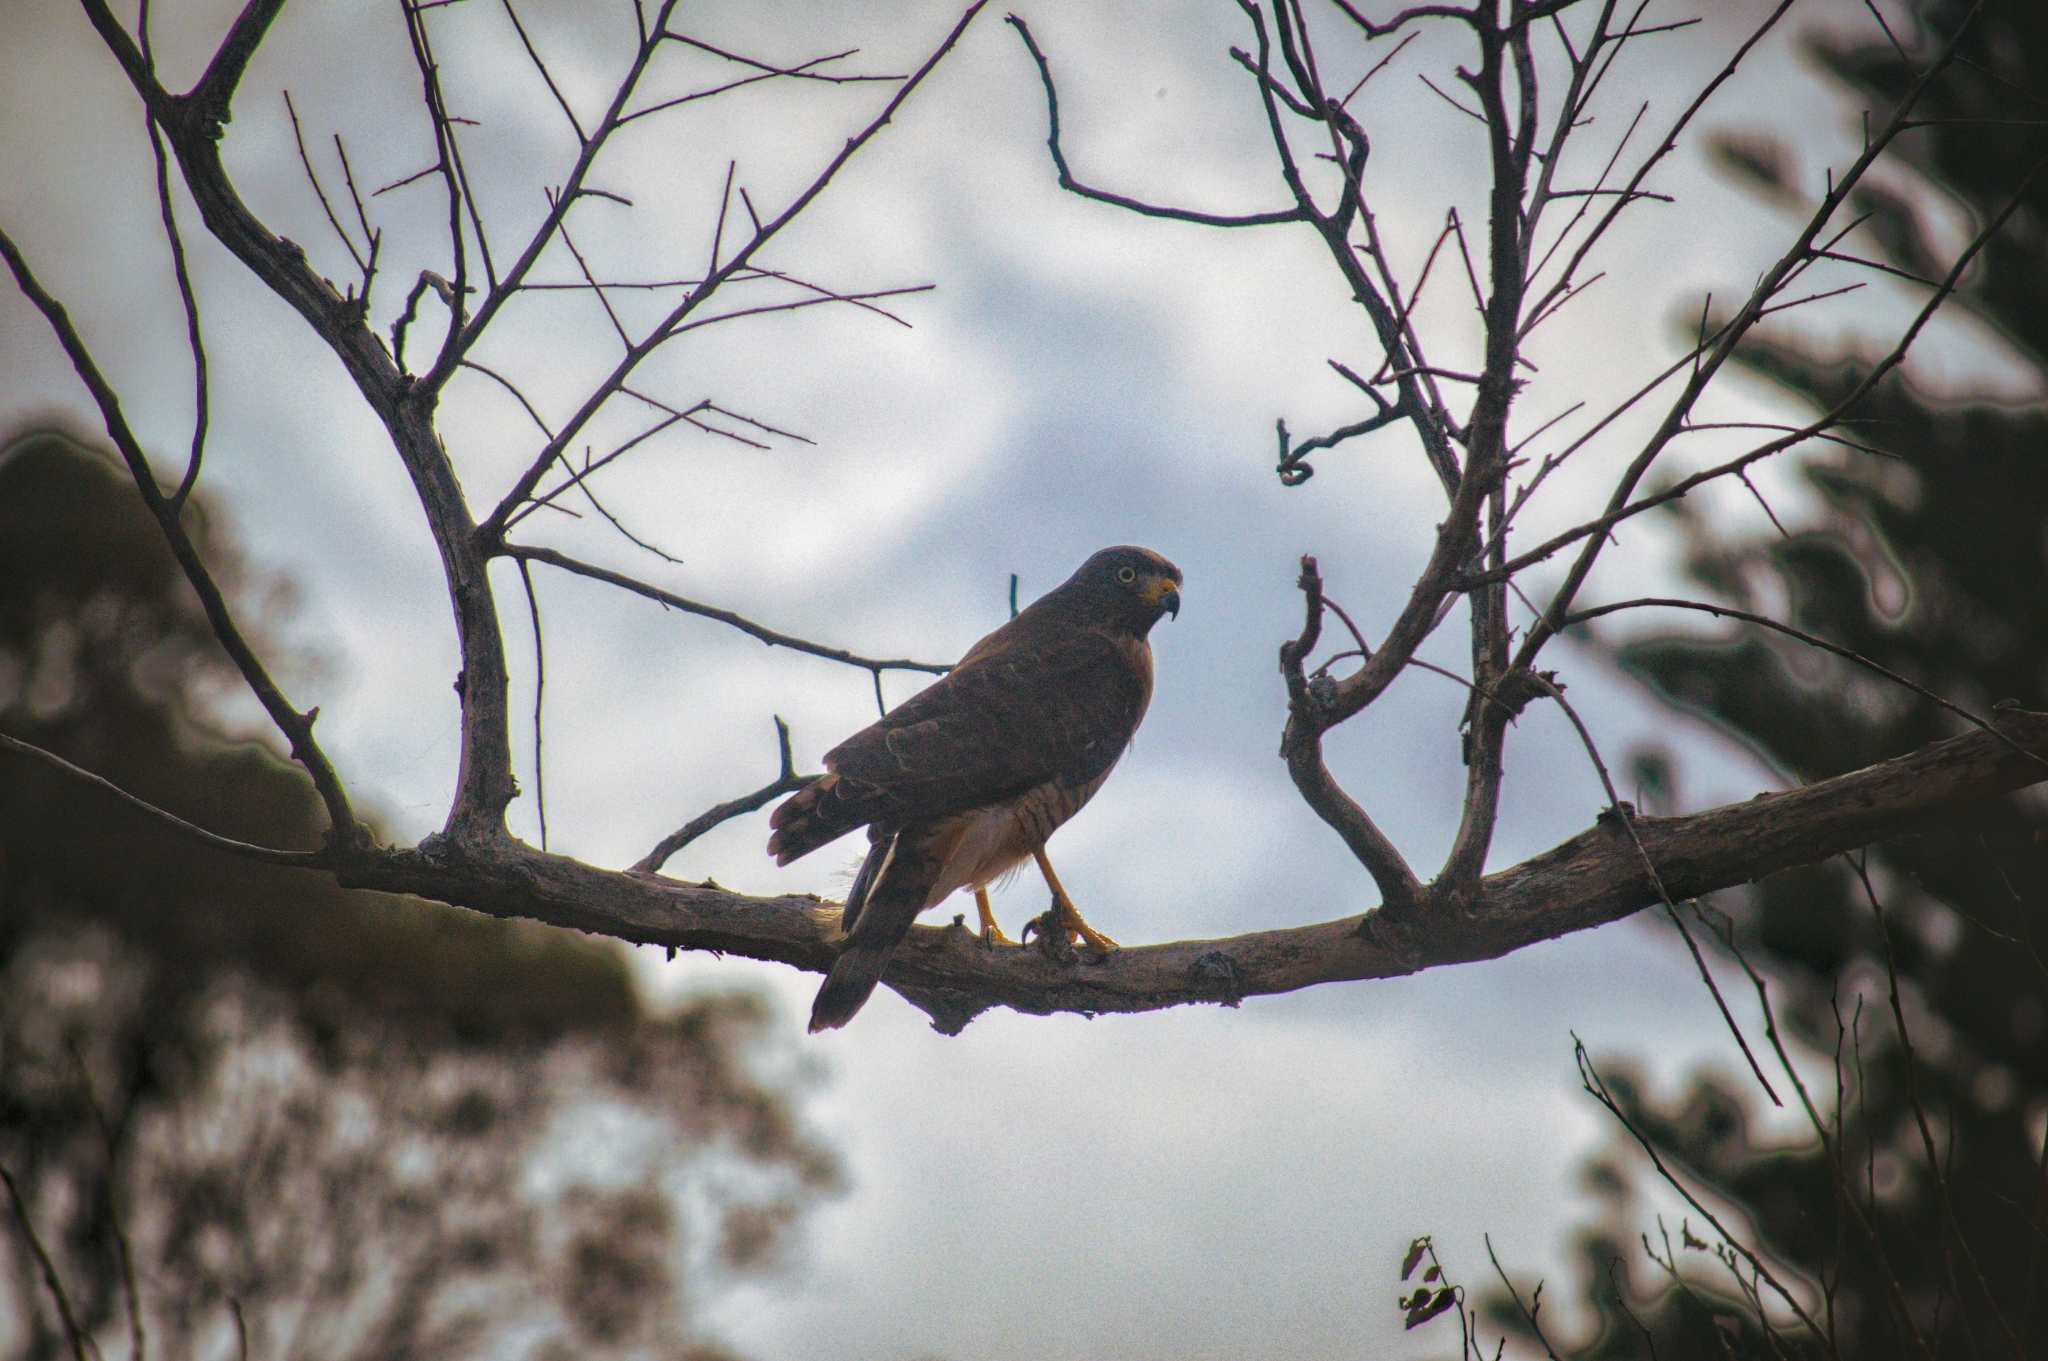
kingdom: Animalia
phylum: Chordata
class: Aves
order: Accipitriformes
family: Accipitridae
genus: Rupornis
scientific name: Rupornis magnirostris
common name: Roadside hawk
